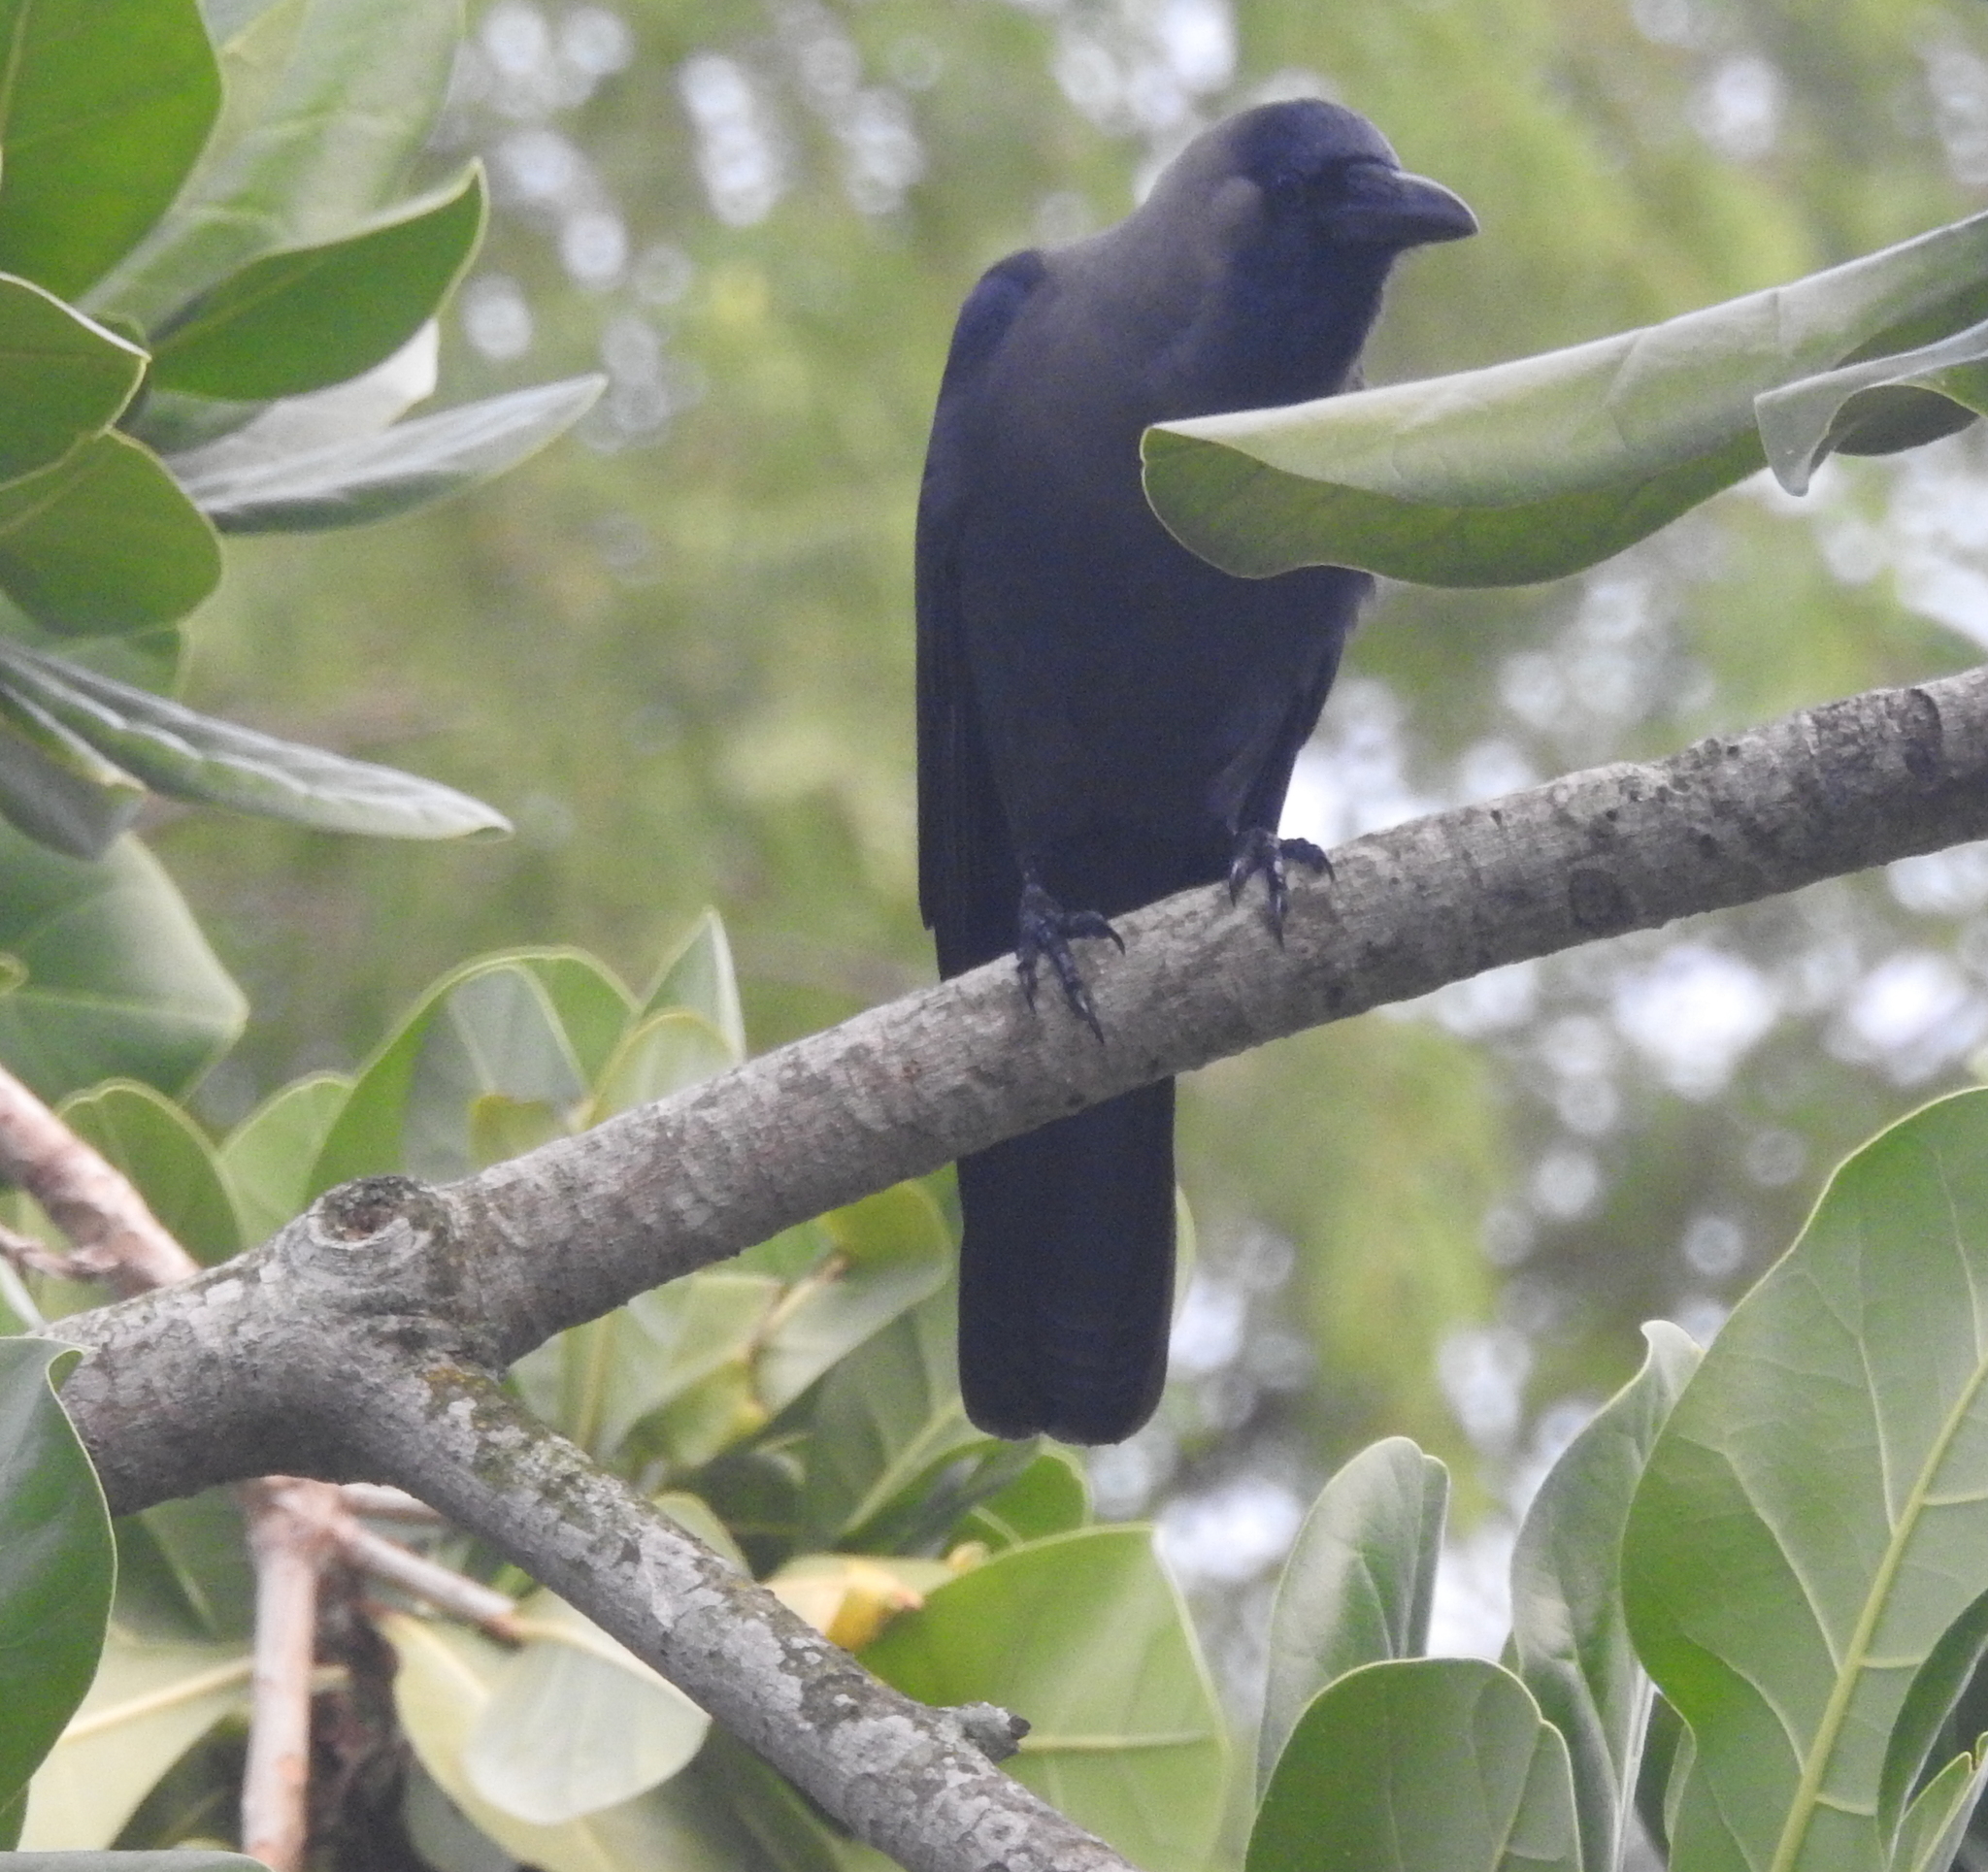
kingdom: Animalia
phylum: Chordata
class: Aves
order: Passeriformes
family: Corvidae
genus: Corvus
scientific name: Corvus splendens
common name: House crow
